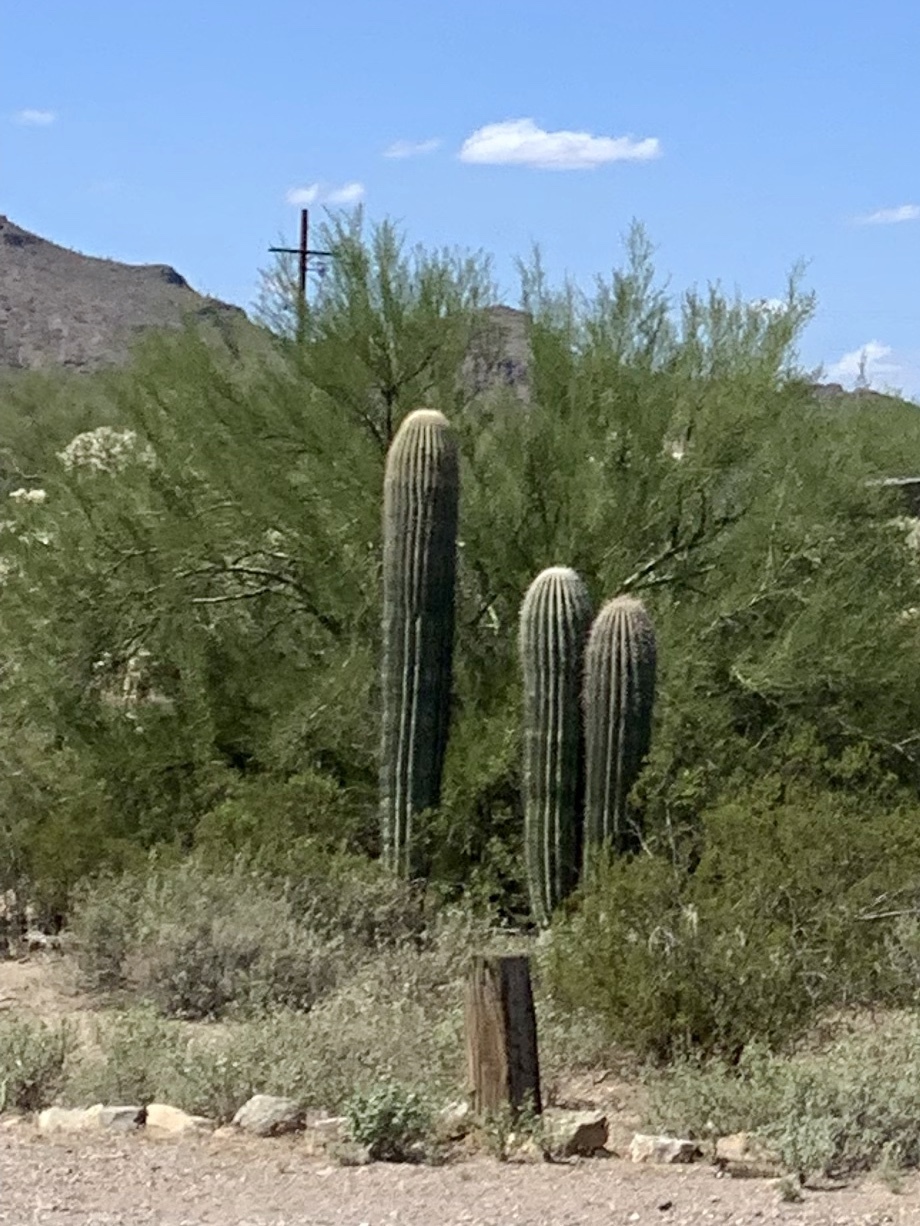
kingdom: Plantae
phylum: Tracheophyta
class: Magnoliopsida
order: Caryophyllales
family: Cactaceae
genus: Carnegiea
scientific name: Carnegiea gigantea
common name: Saguaro
